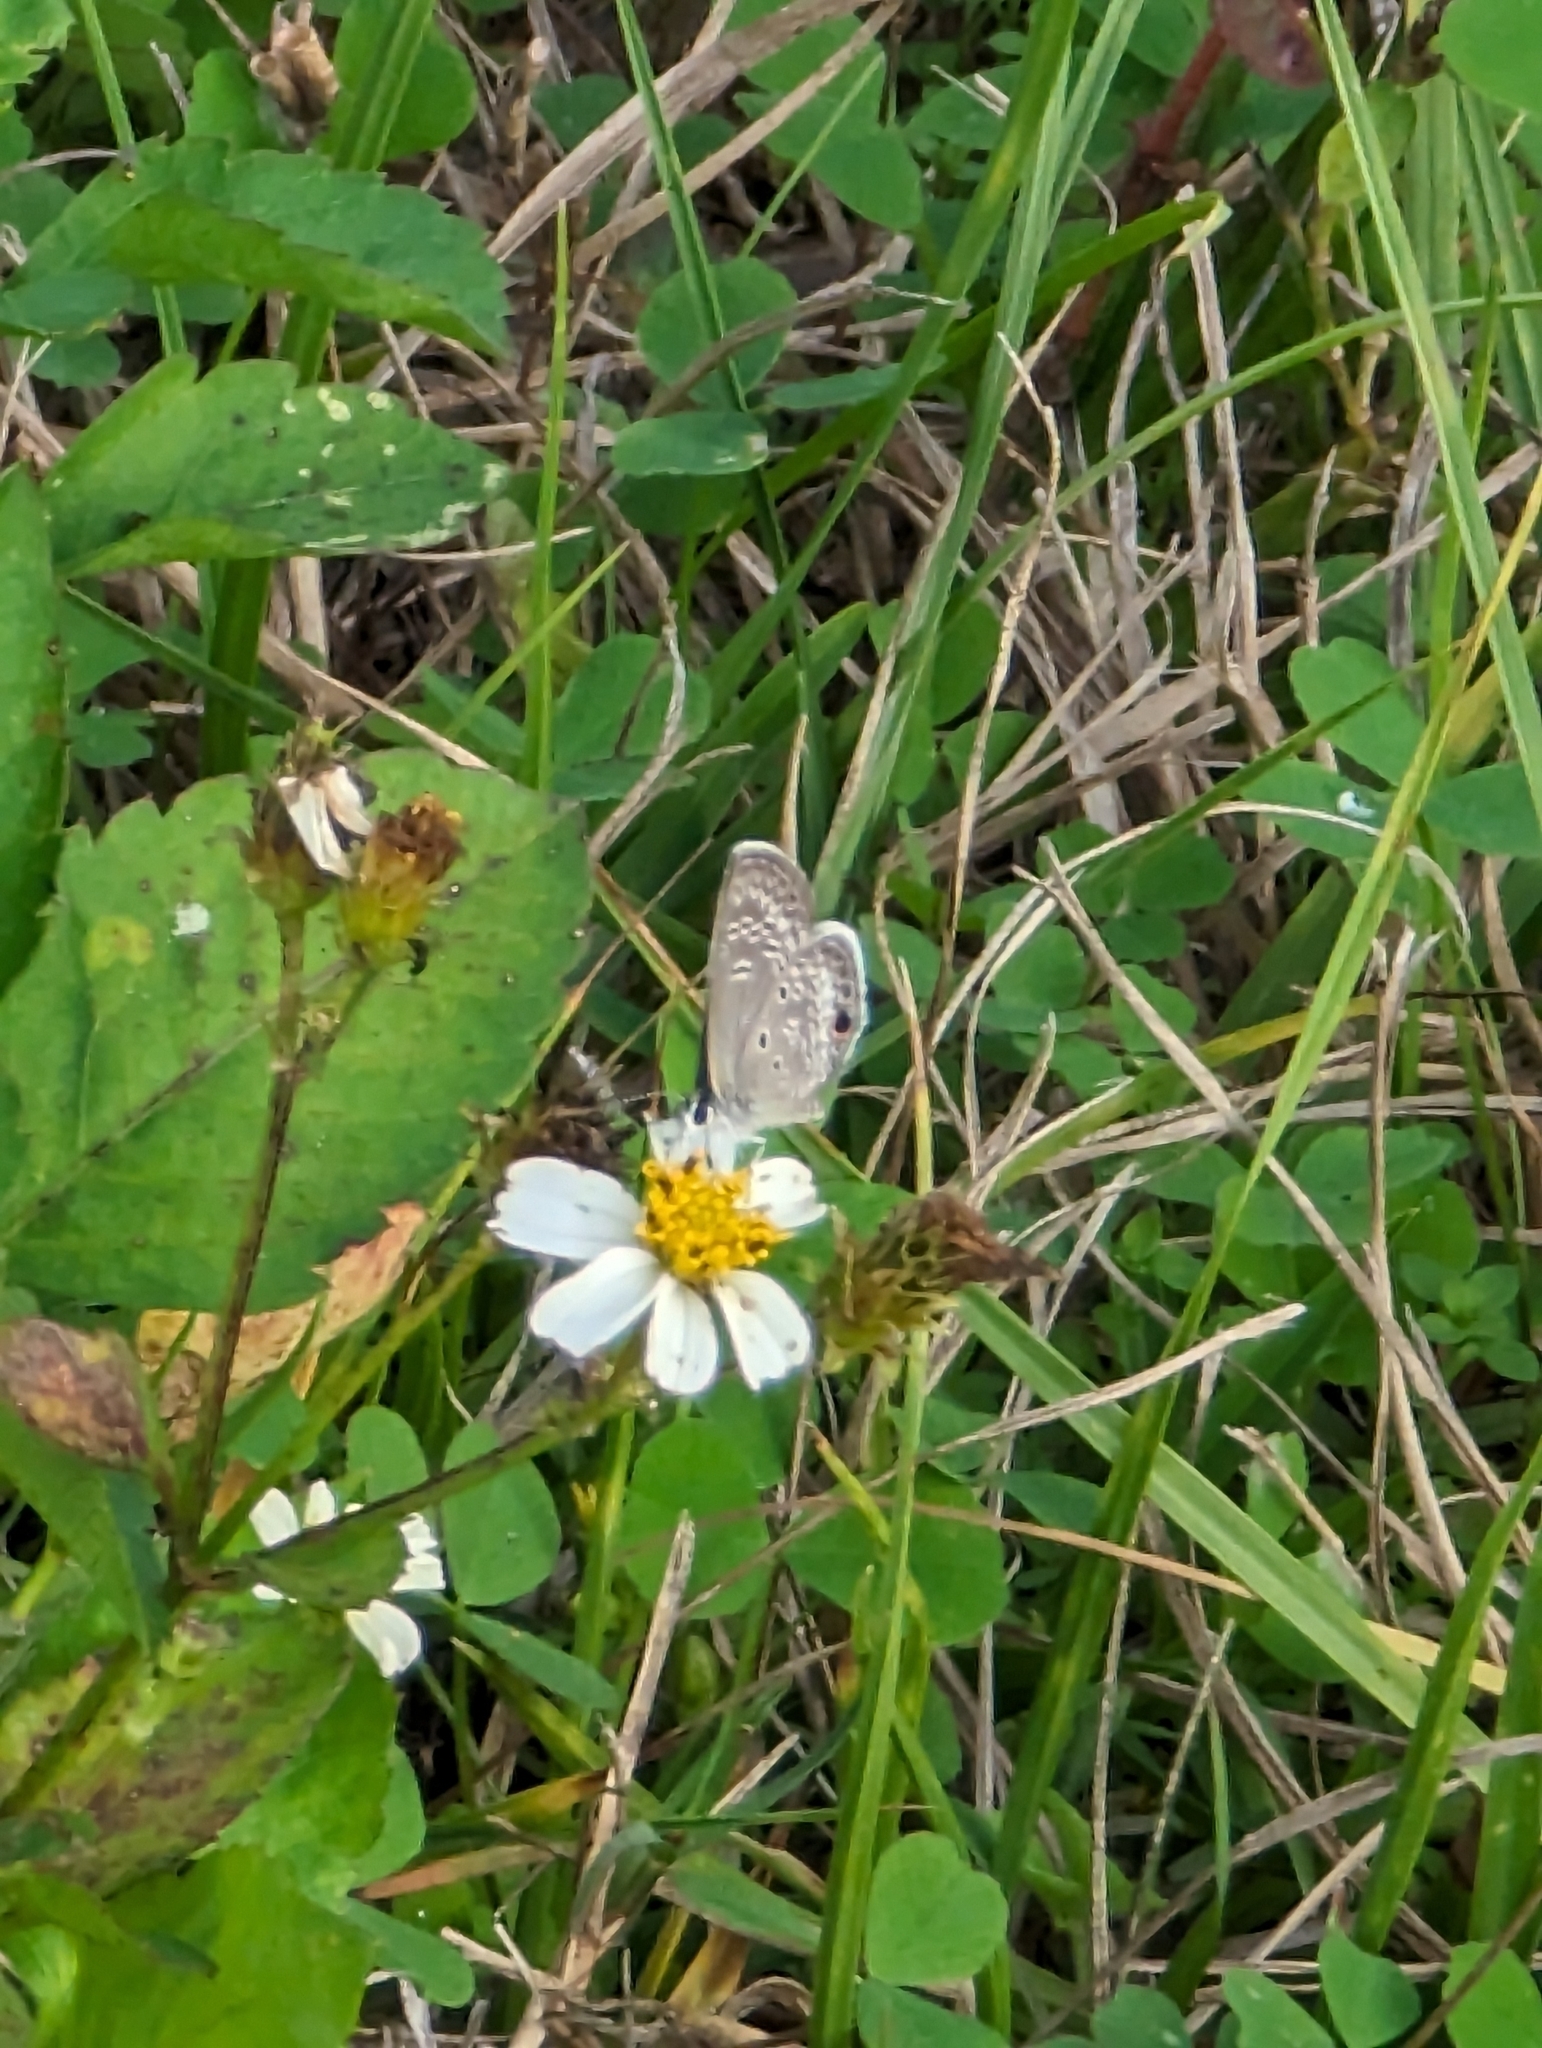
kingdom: Animalia
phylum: Arthropoda
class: Insecta
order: Lepidoptera
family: Lycaenidae
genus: Hemiargus
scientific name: Hemiargus ceraunus
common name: Ceraunus blue
